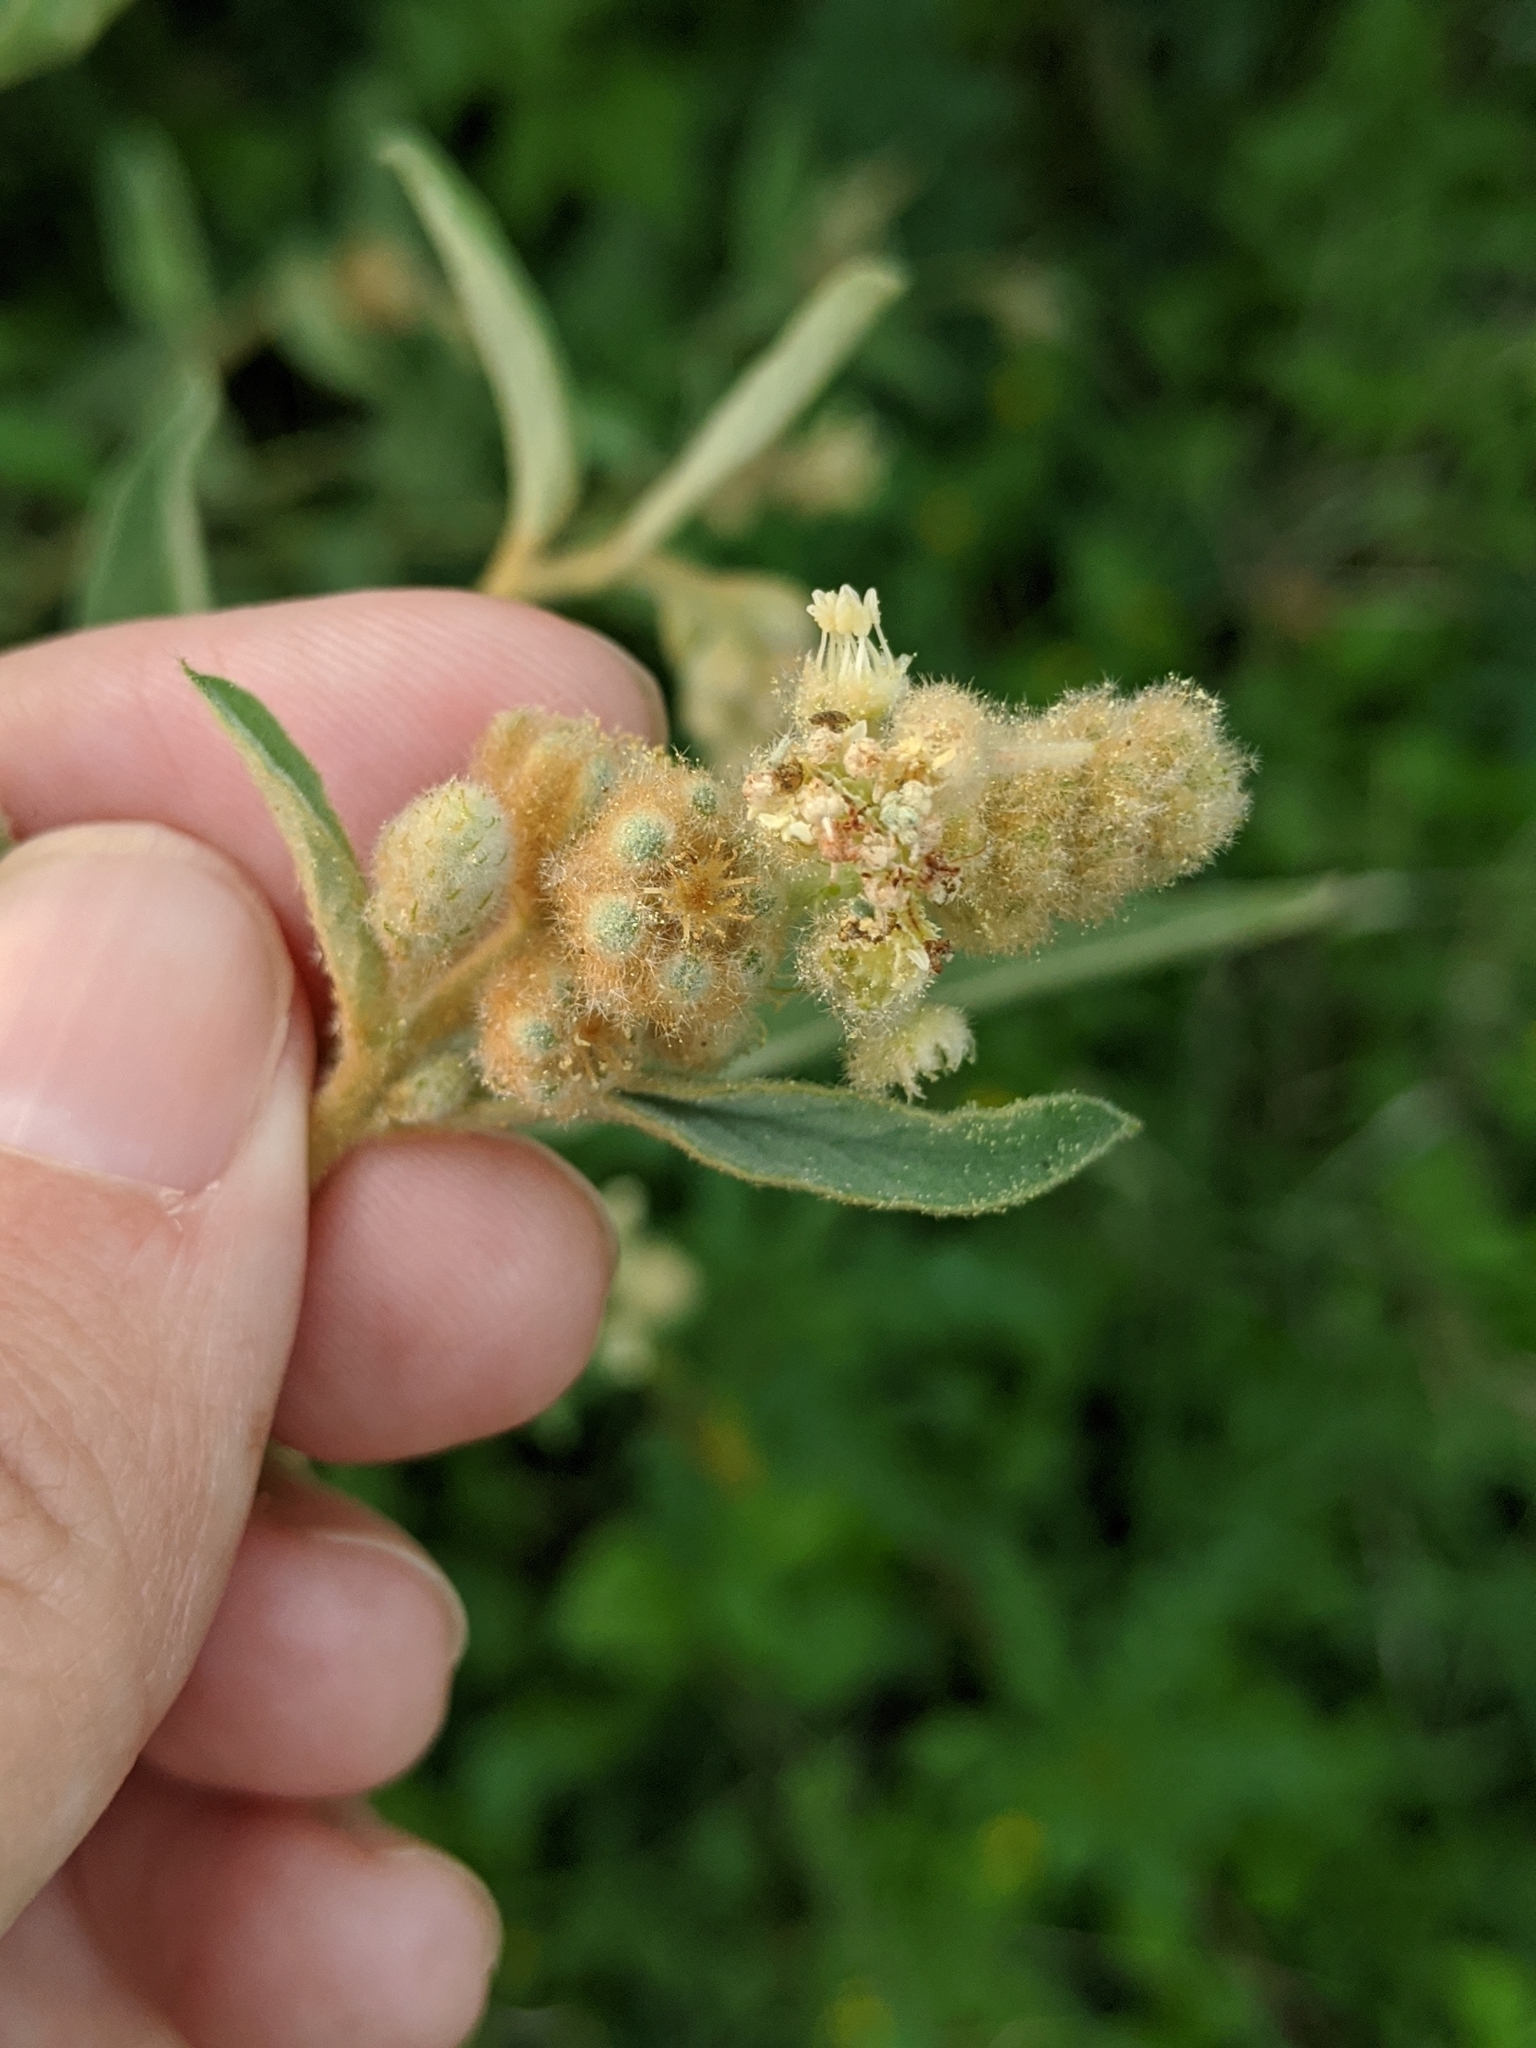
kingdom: Plantae
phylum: Tracheophyta
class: Magnoliopsida
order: Malpighiales
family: Euphorbiaceae
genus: Croton
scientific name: Croton lindheimeri
